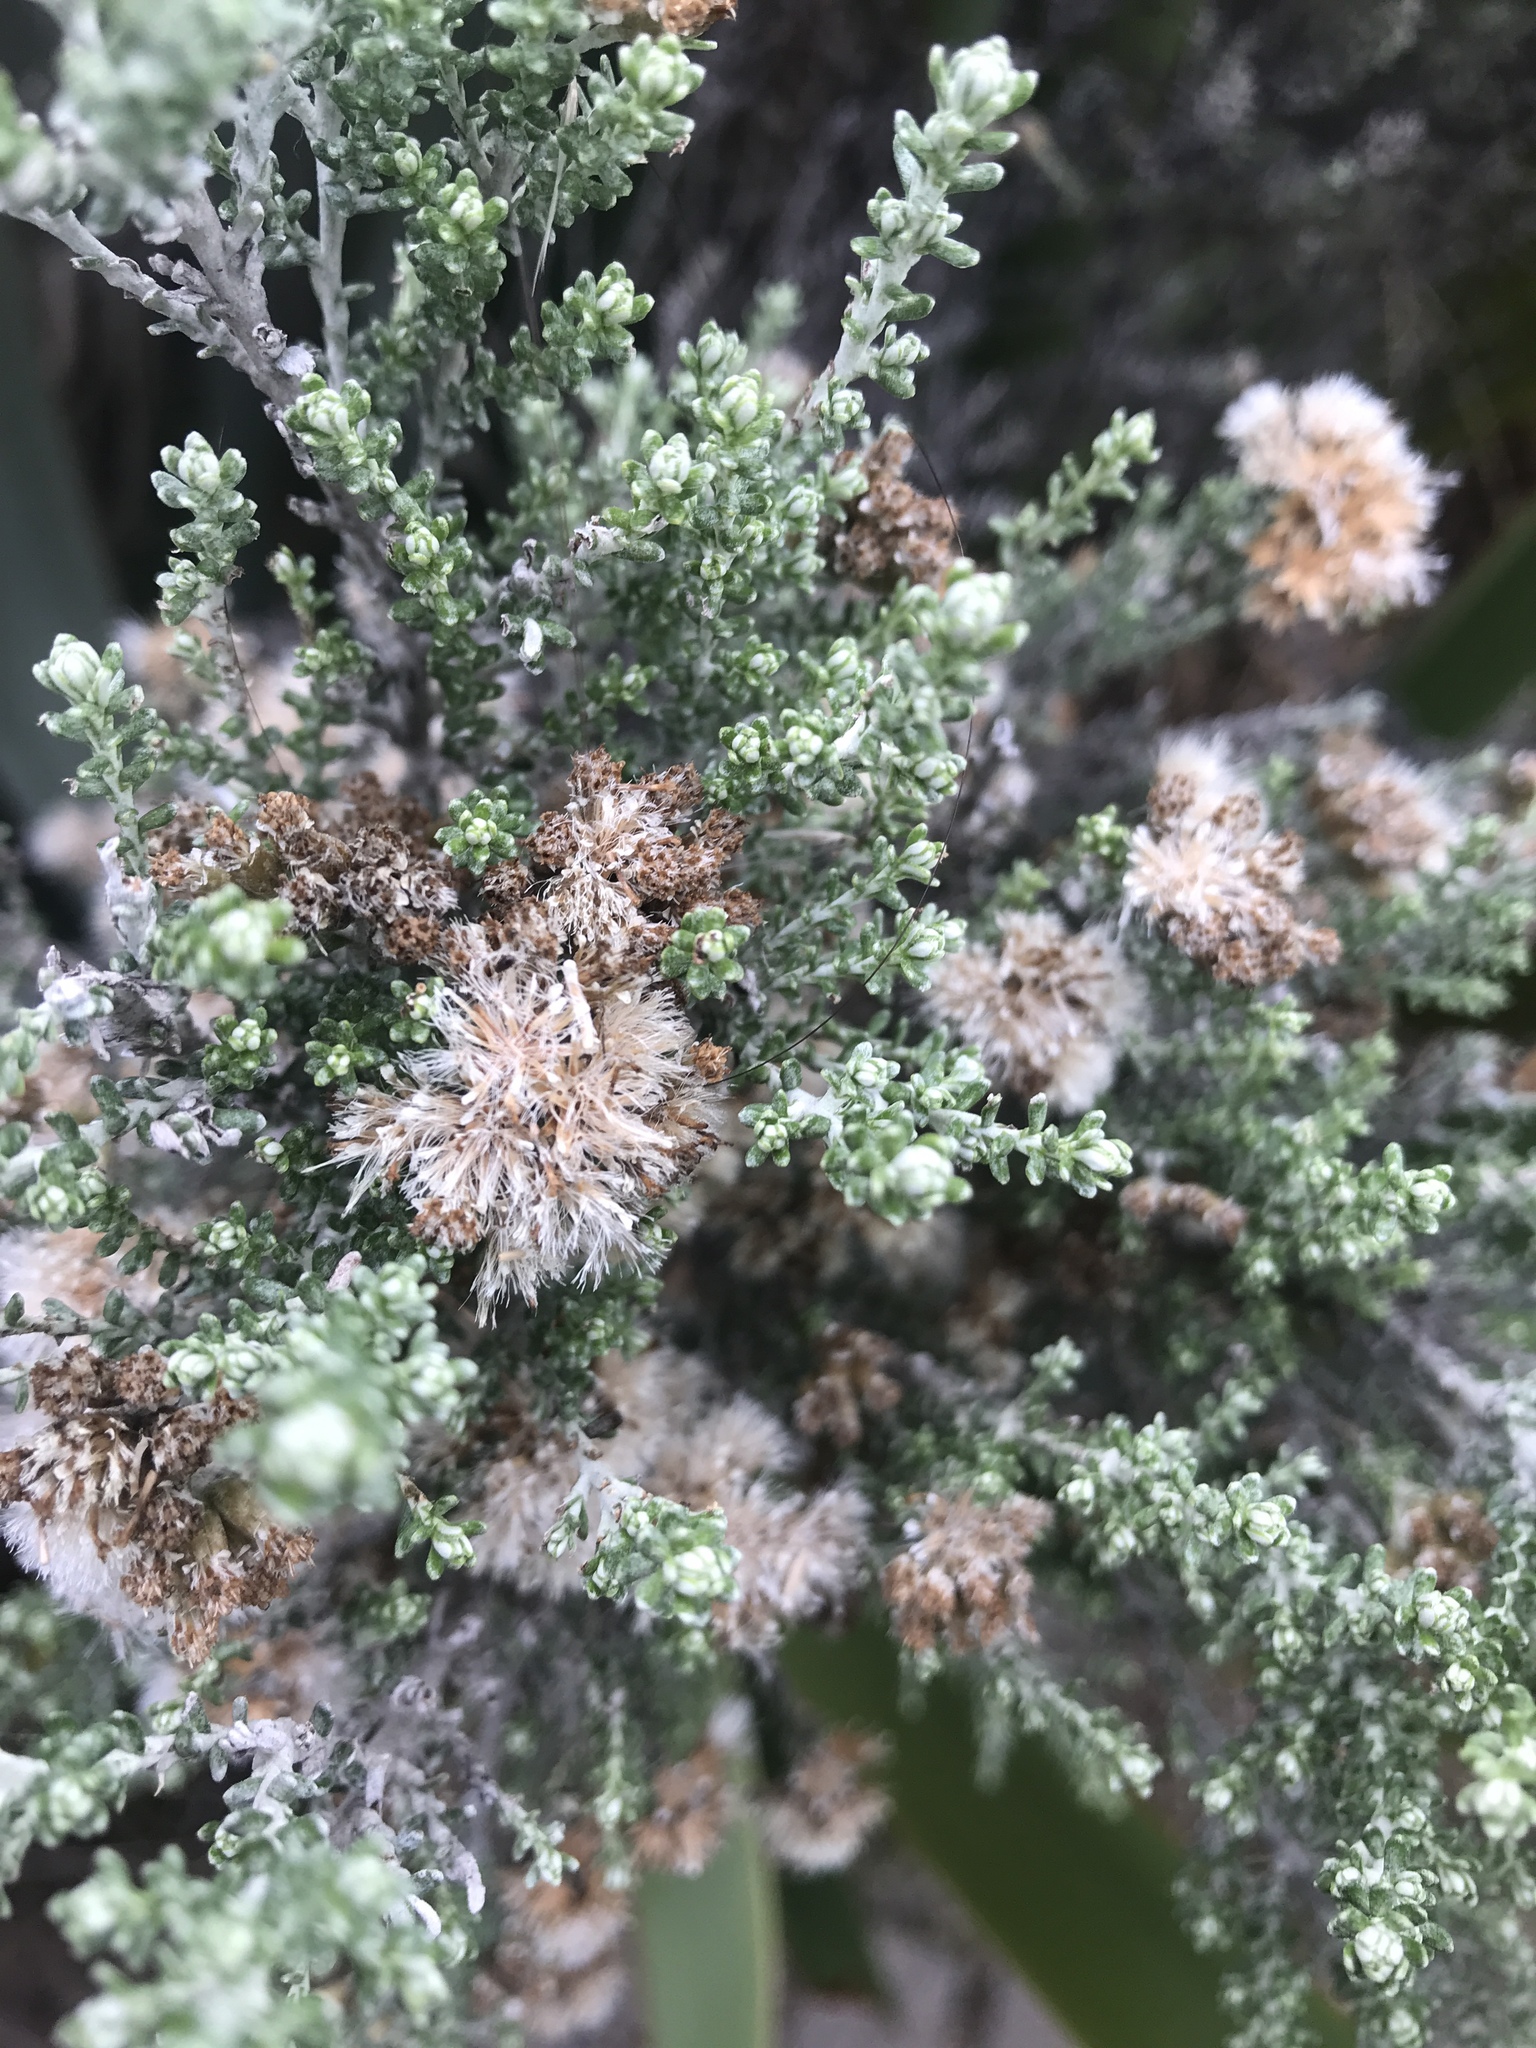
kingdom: Plantae
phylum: Tracheophyta
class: Magnoliopsida
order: Asterales
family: Asteraceae
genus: Ozothamnus
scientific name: Ozothamnus leptophyllus
